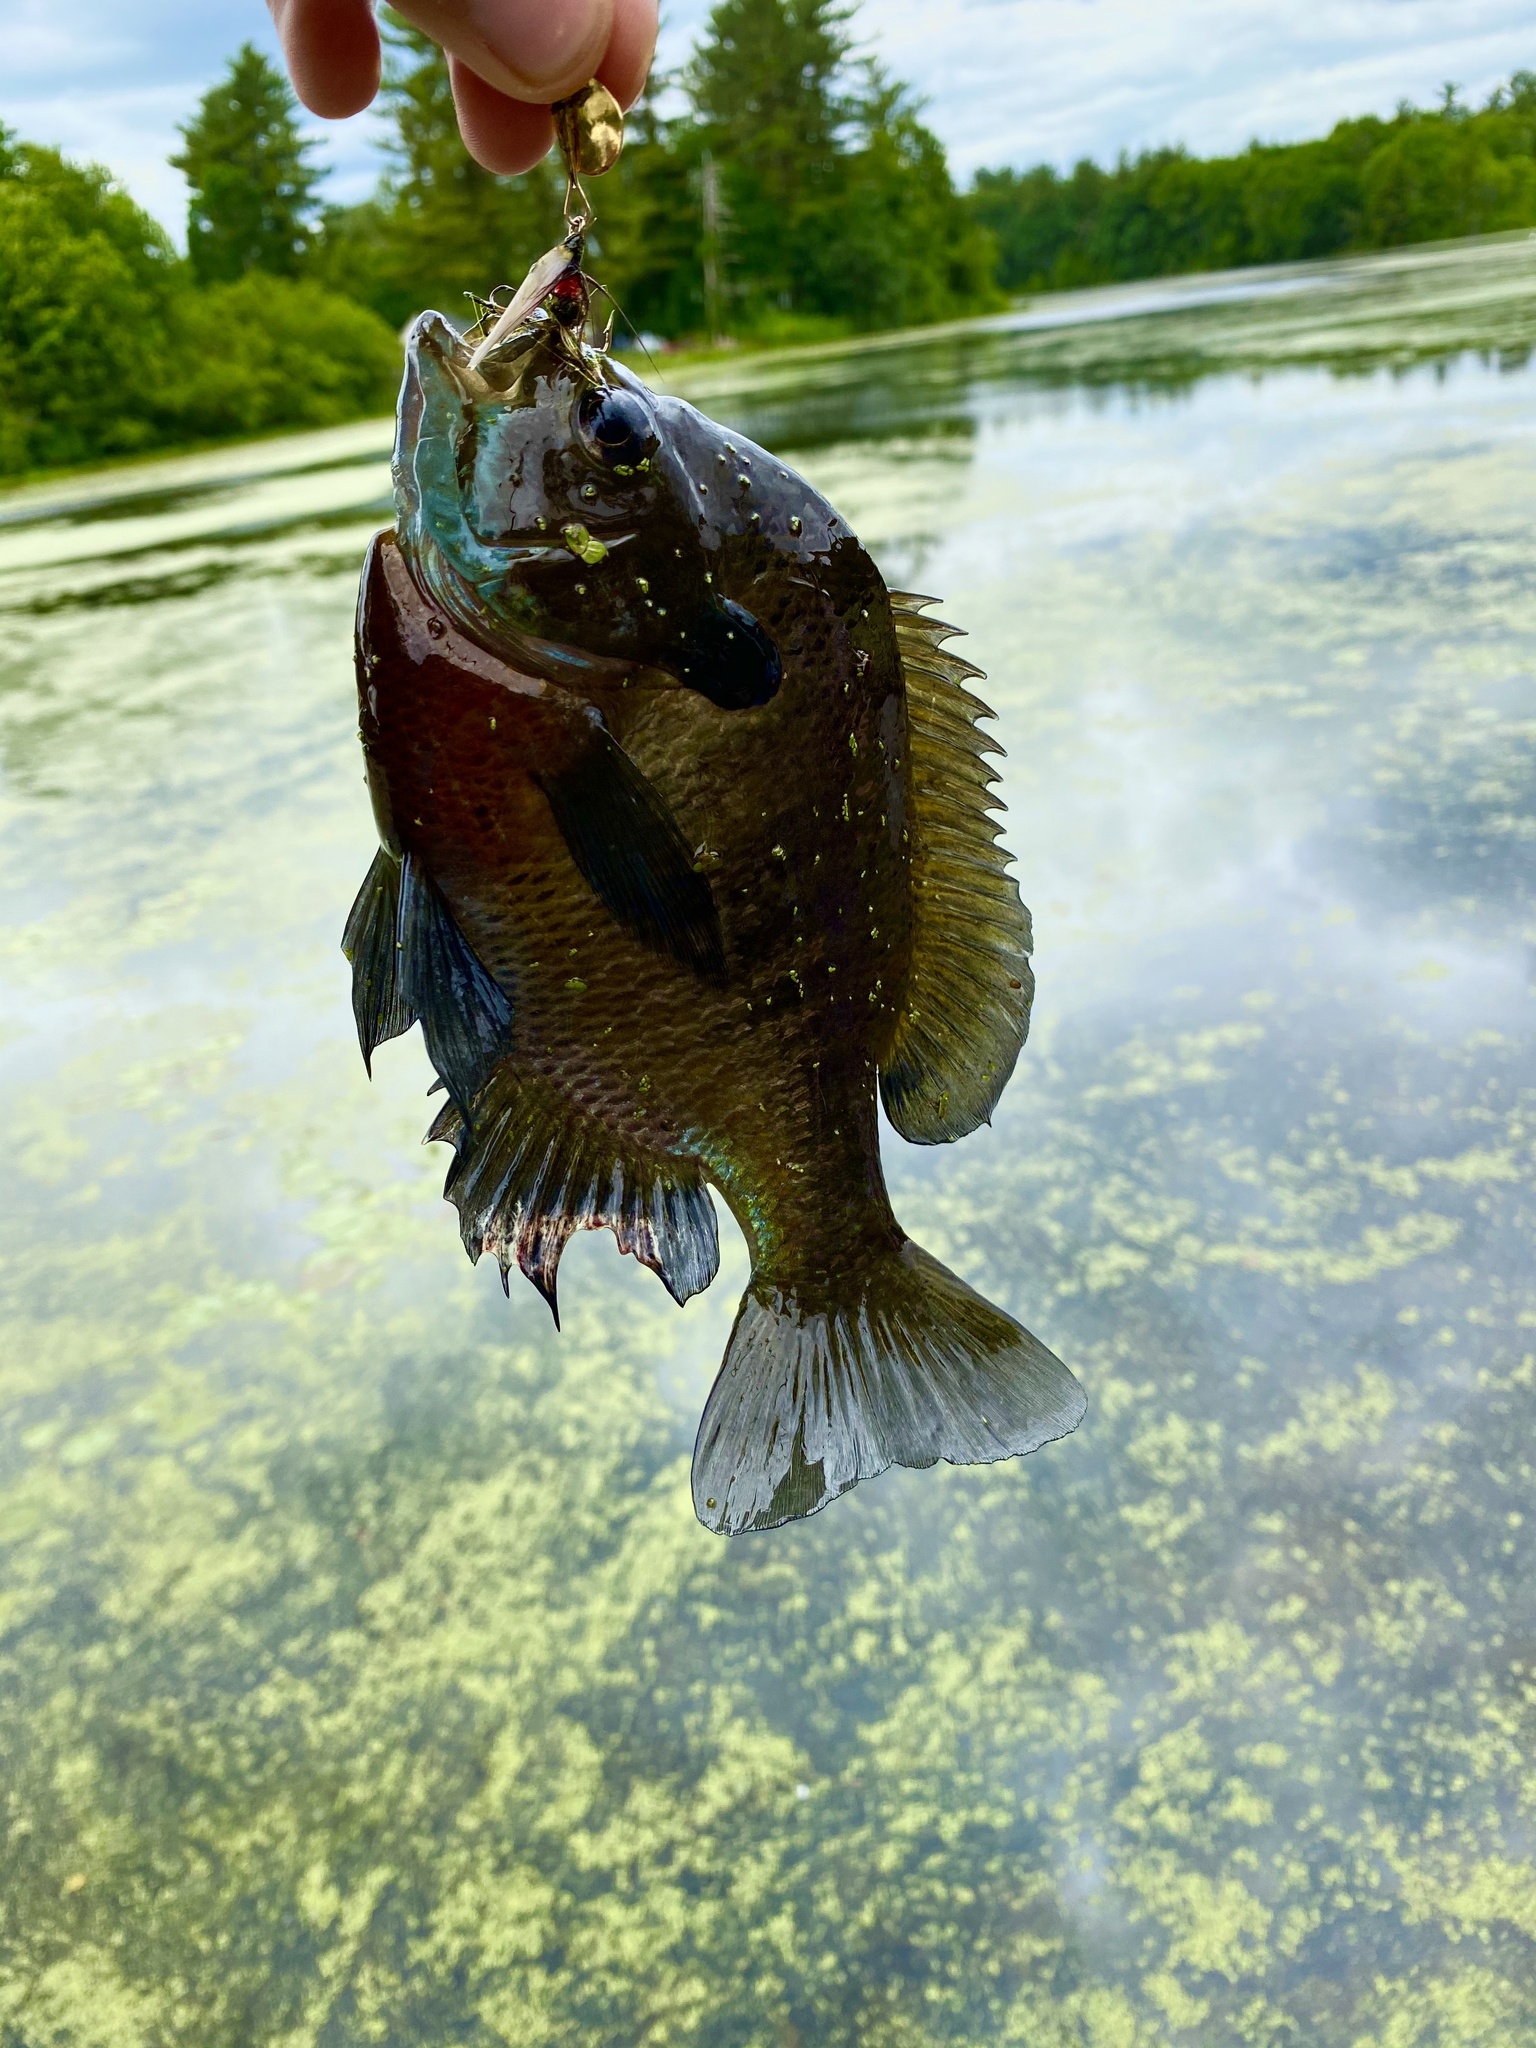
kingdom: Animalia
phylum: Chordata
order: Perciformes
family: Centrarchidae
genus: Lepomis
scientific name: Lepomis macrochirus
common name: Bluegill
